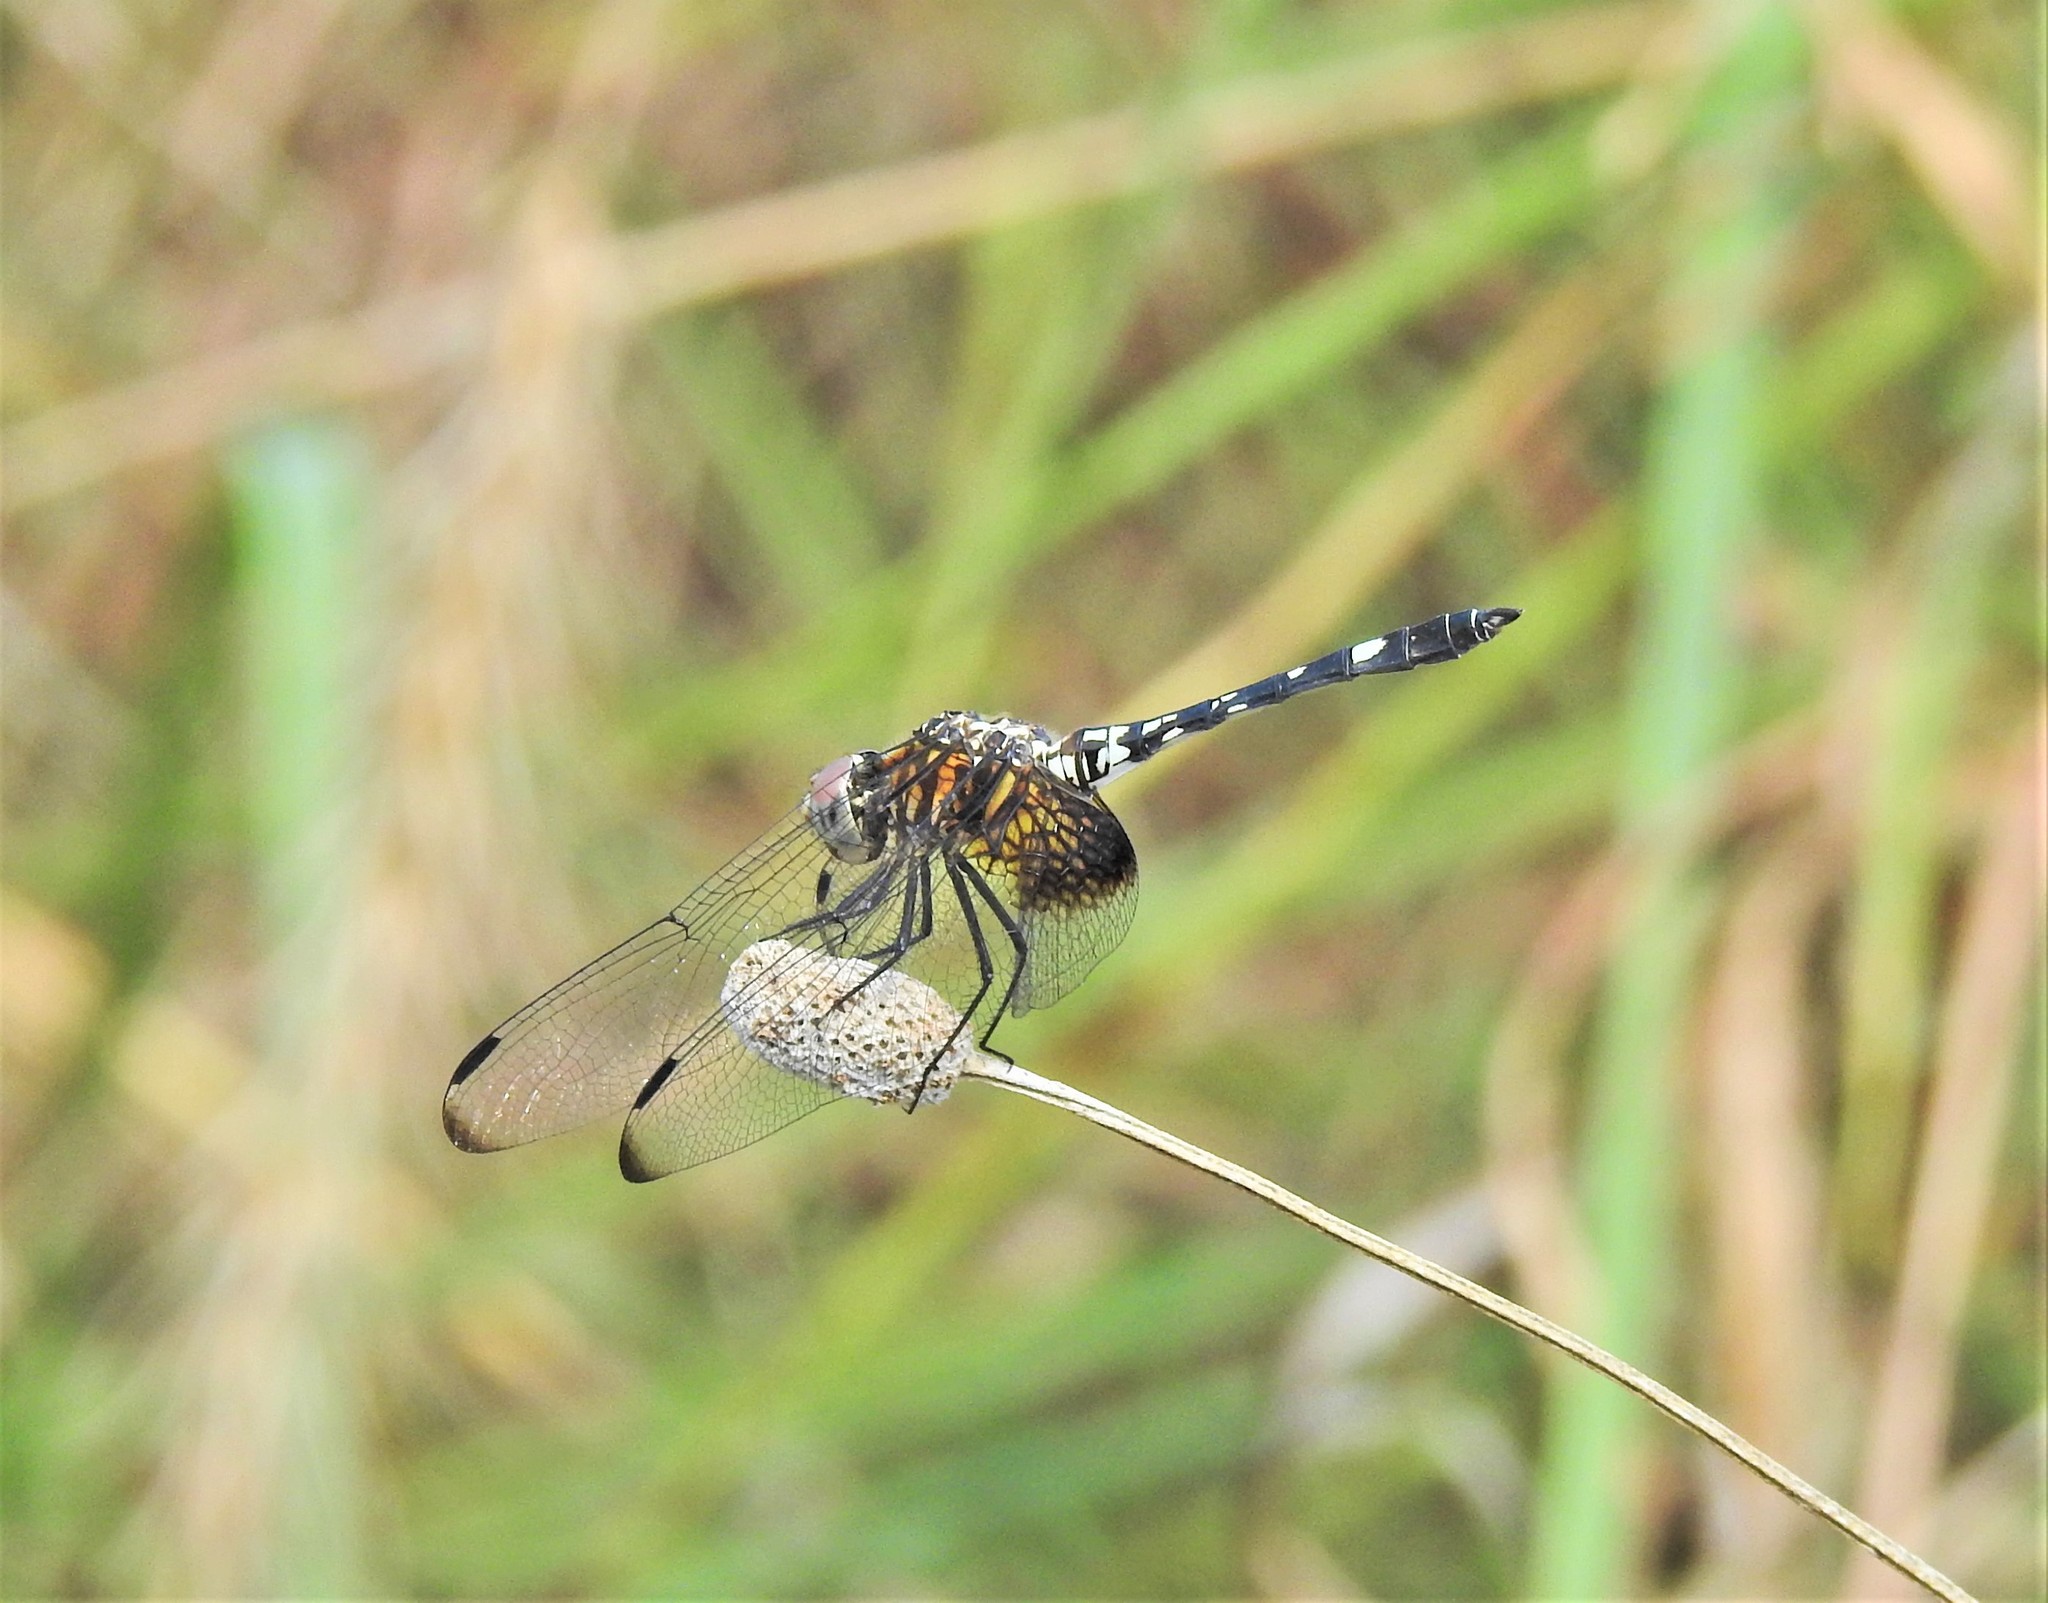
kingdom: Animalia
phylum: Arthropoda
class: Insecta
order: Odonata
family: Libellulidae
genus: Dythemis
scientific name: Dythemis fugax
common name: Checkered setwing
